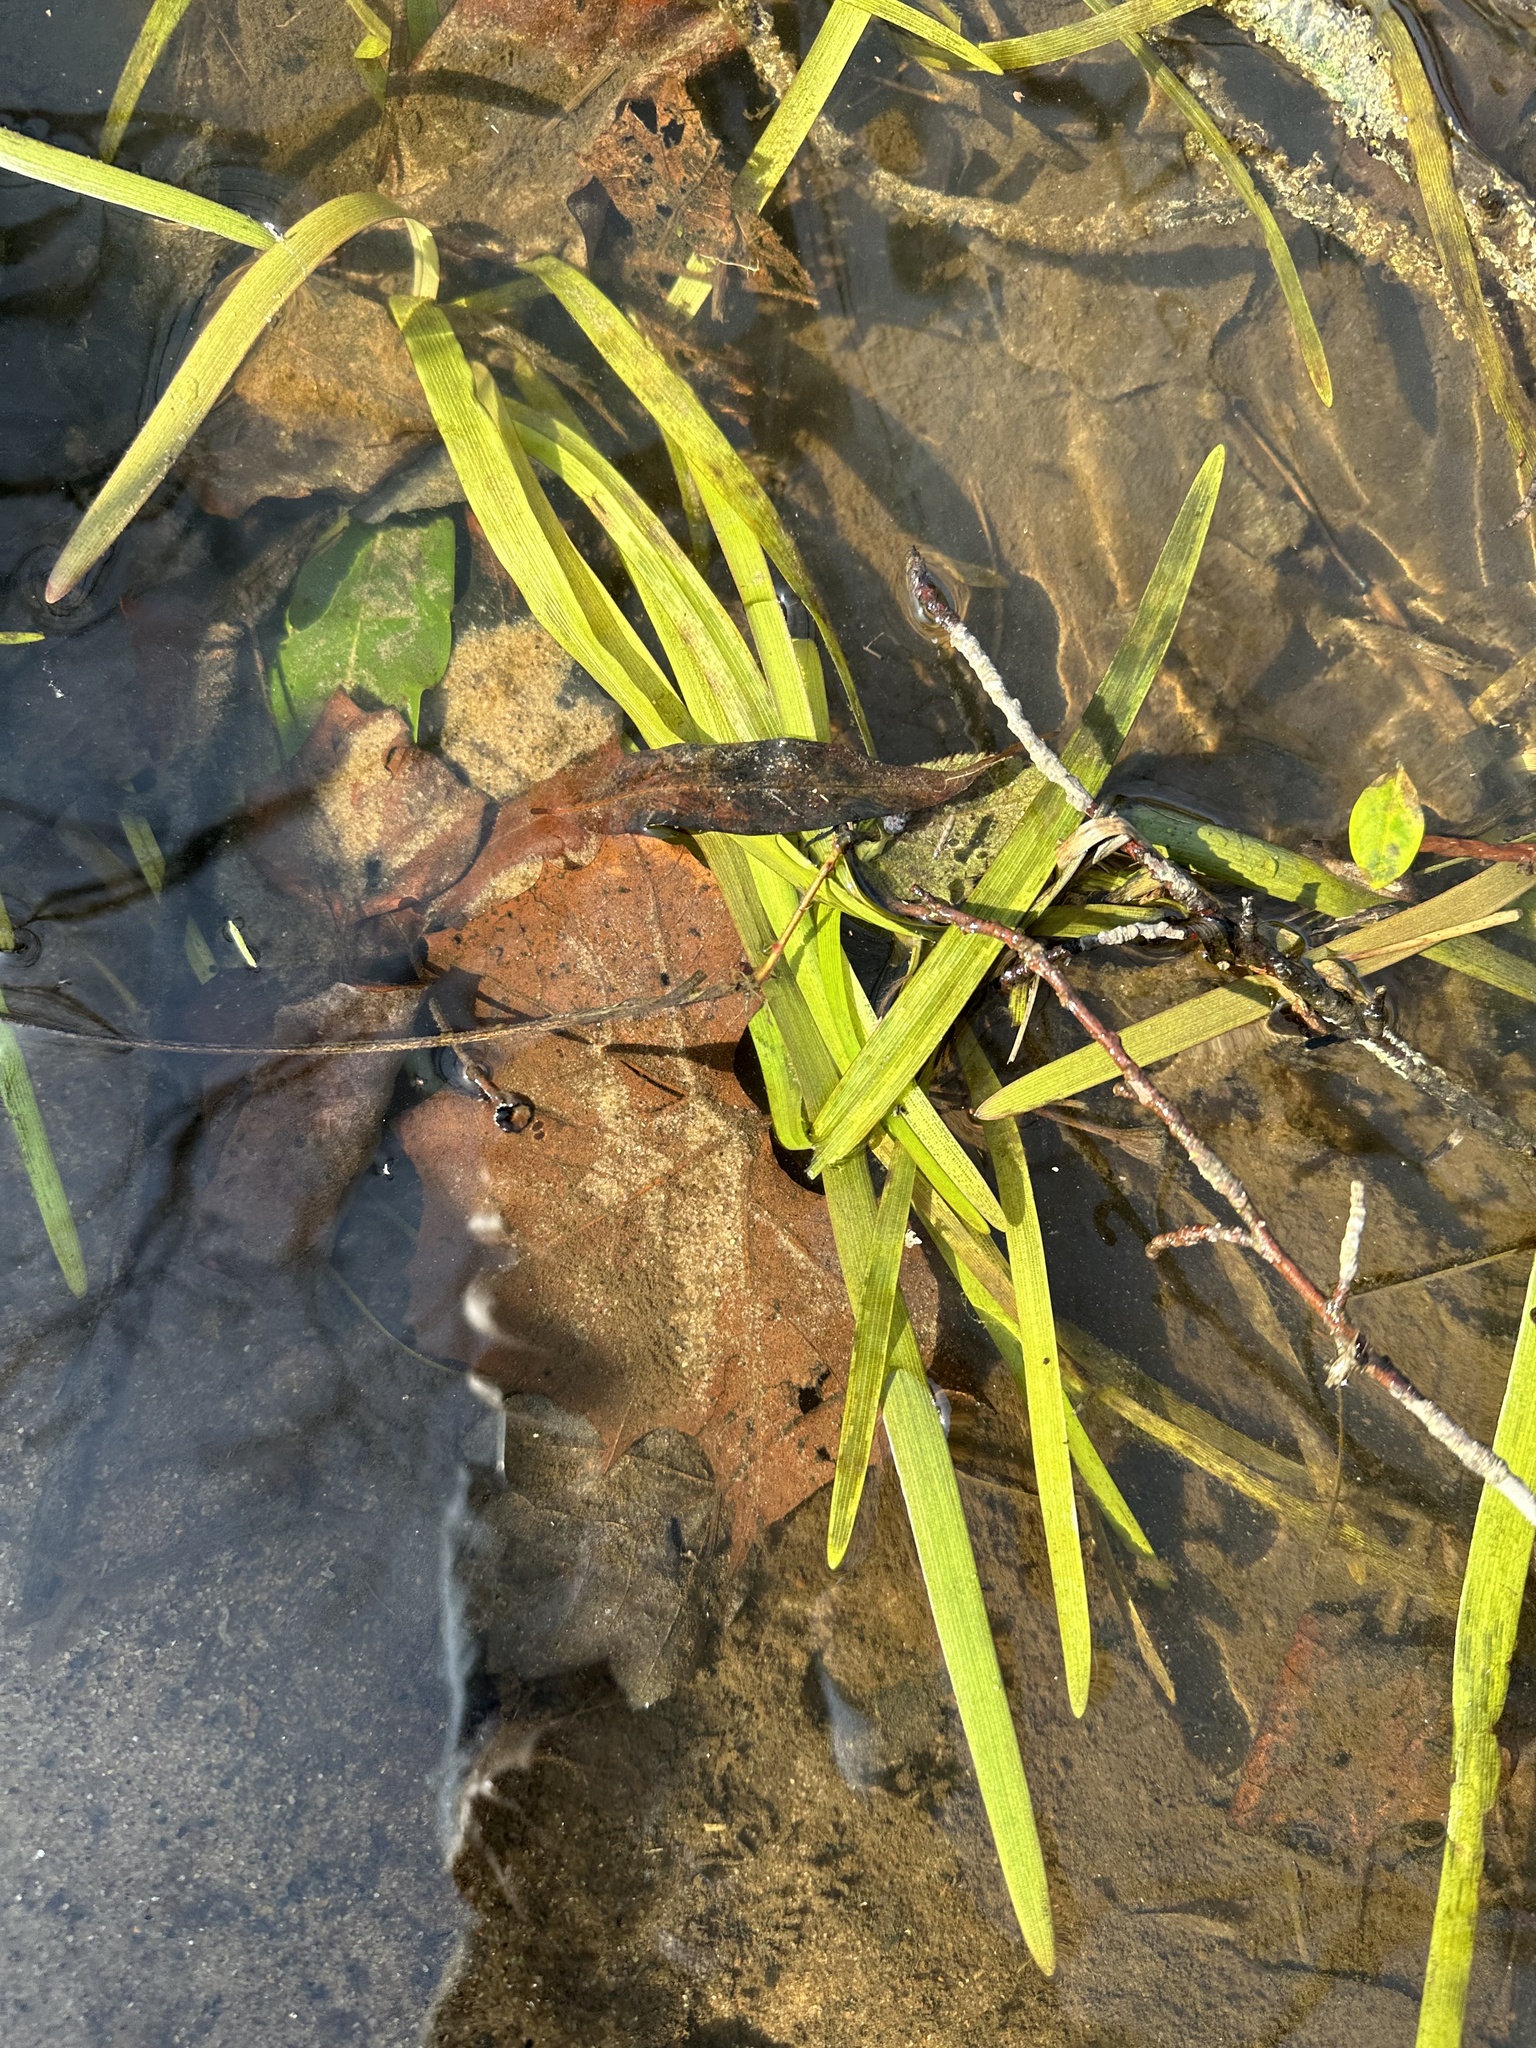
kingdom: Plantae
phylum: Tracheophyta
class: Liliopsida
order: Poales
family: Typhaceae
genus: Sparganium
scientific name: Sparganium americanum
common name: American burreed
